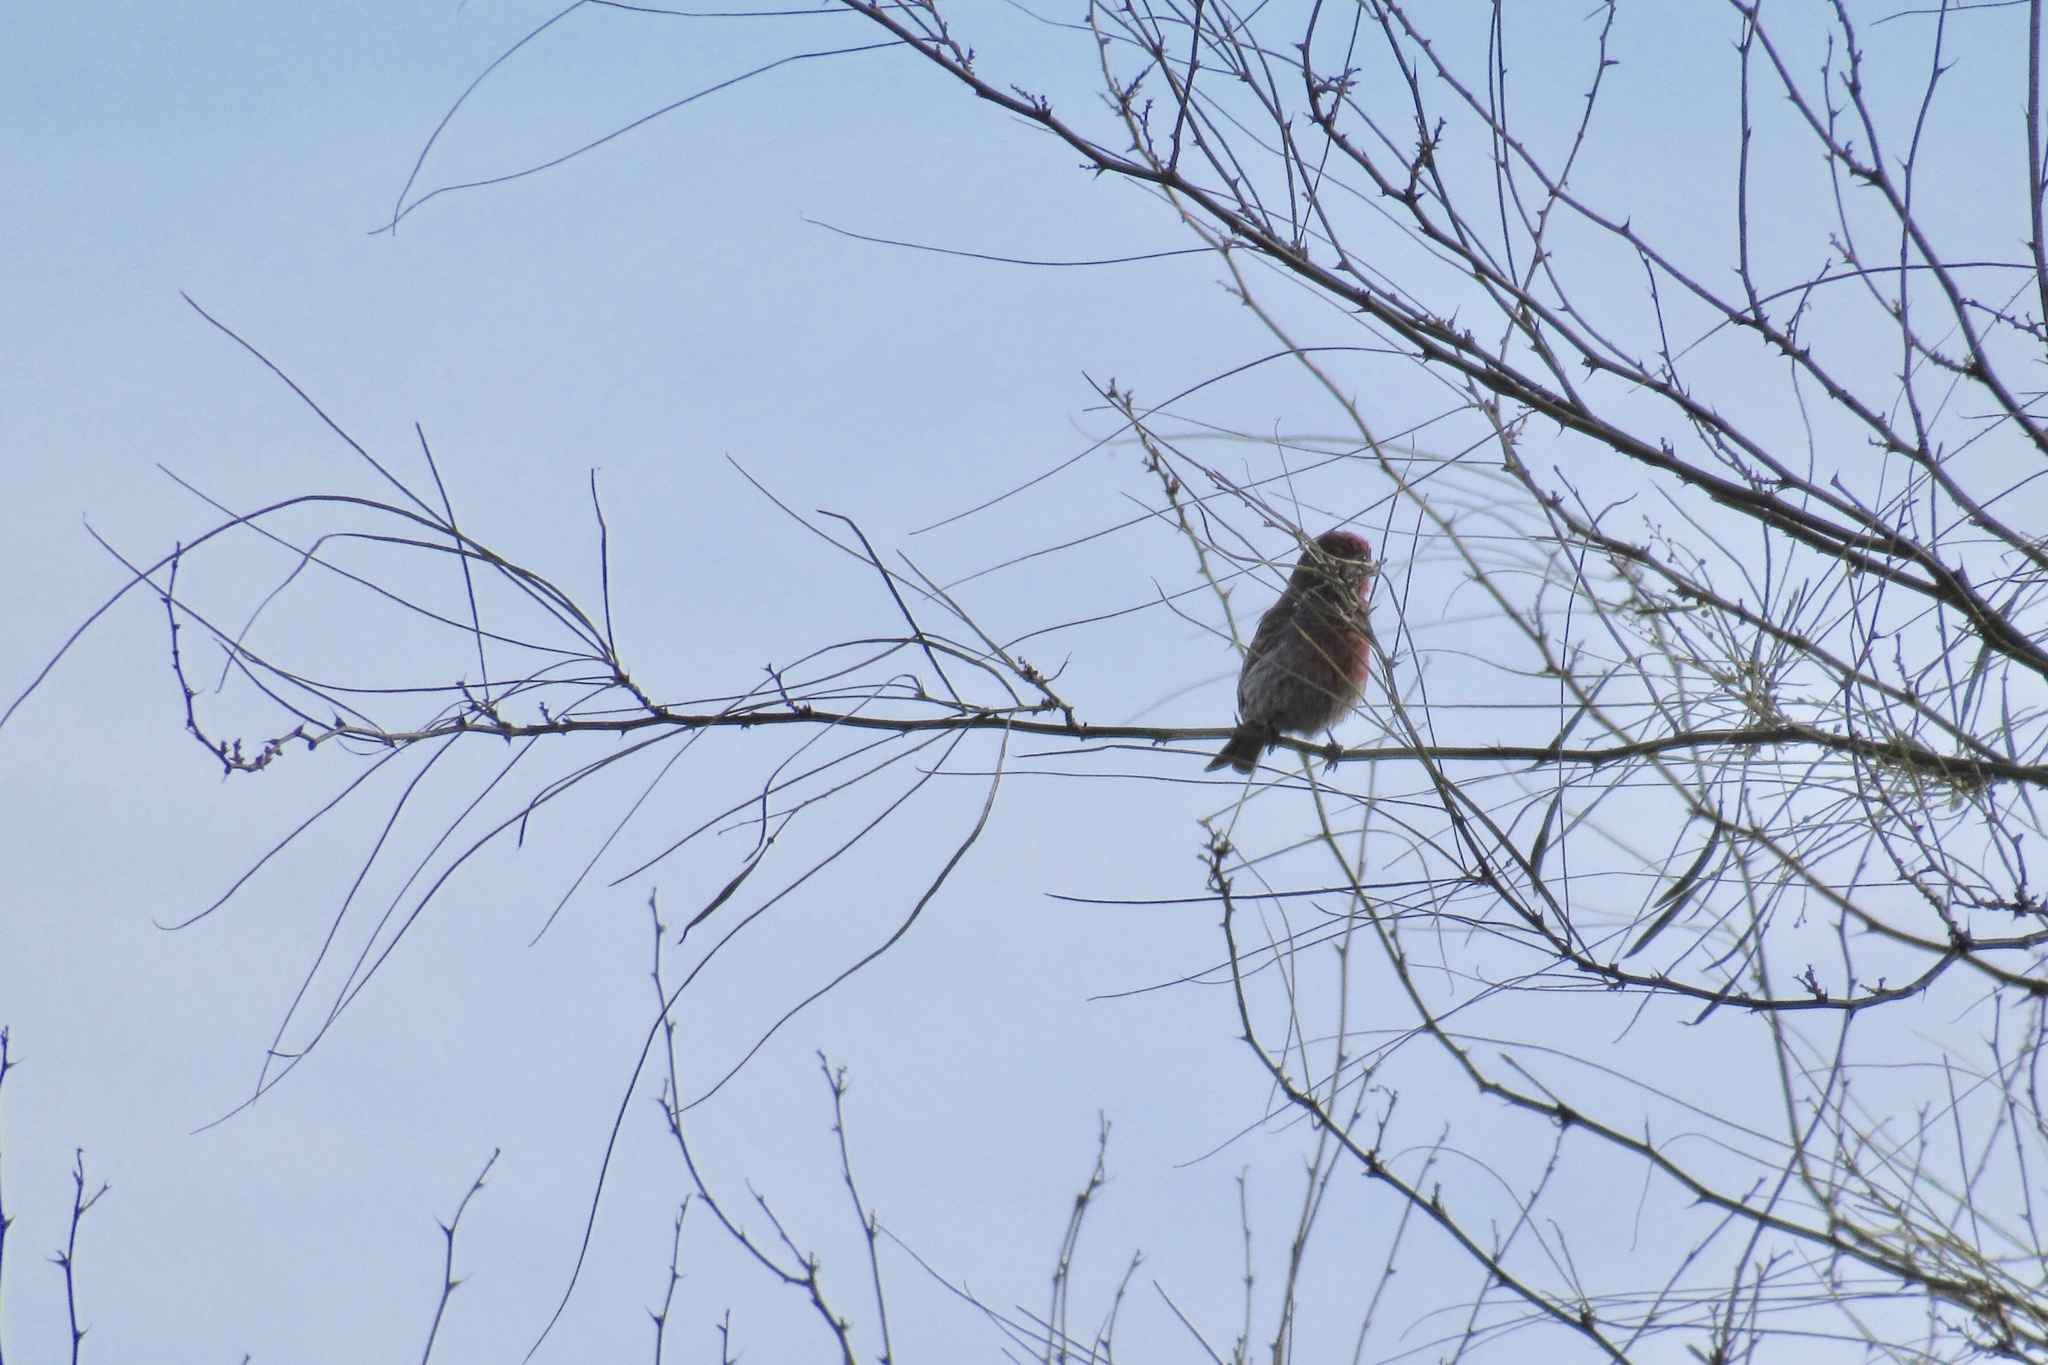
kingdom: Animalia
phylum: Chordata
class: Aves
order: Passeriformes
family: Fringillidae
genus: Haemorhous
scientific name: Haemorhous mexicanus
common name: House finch
